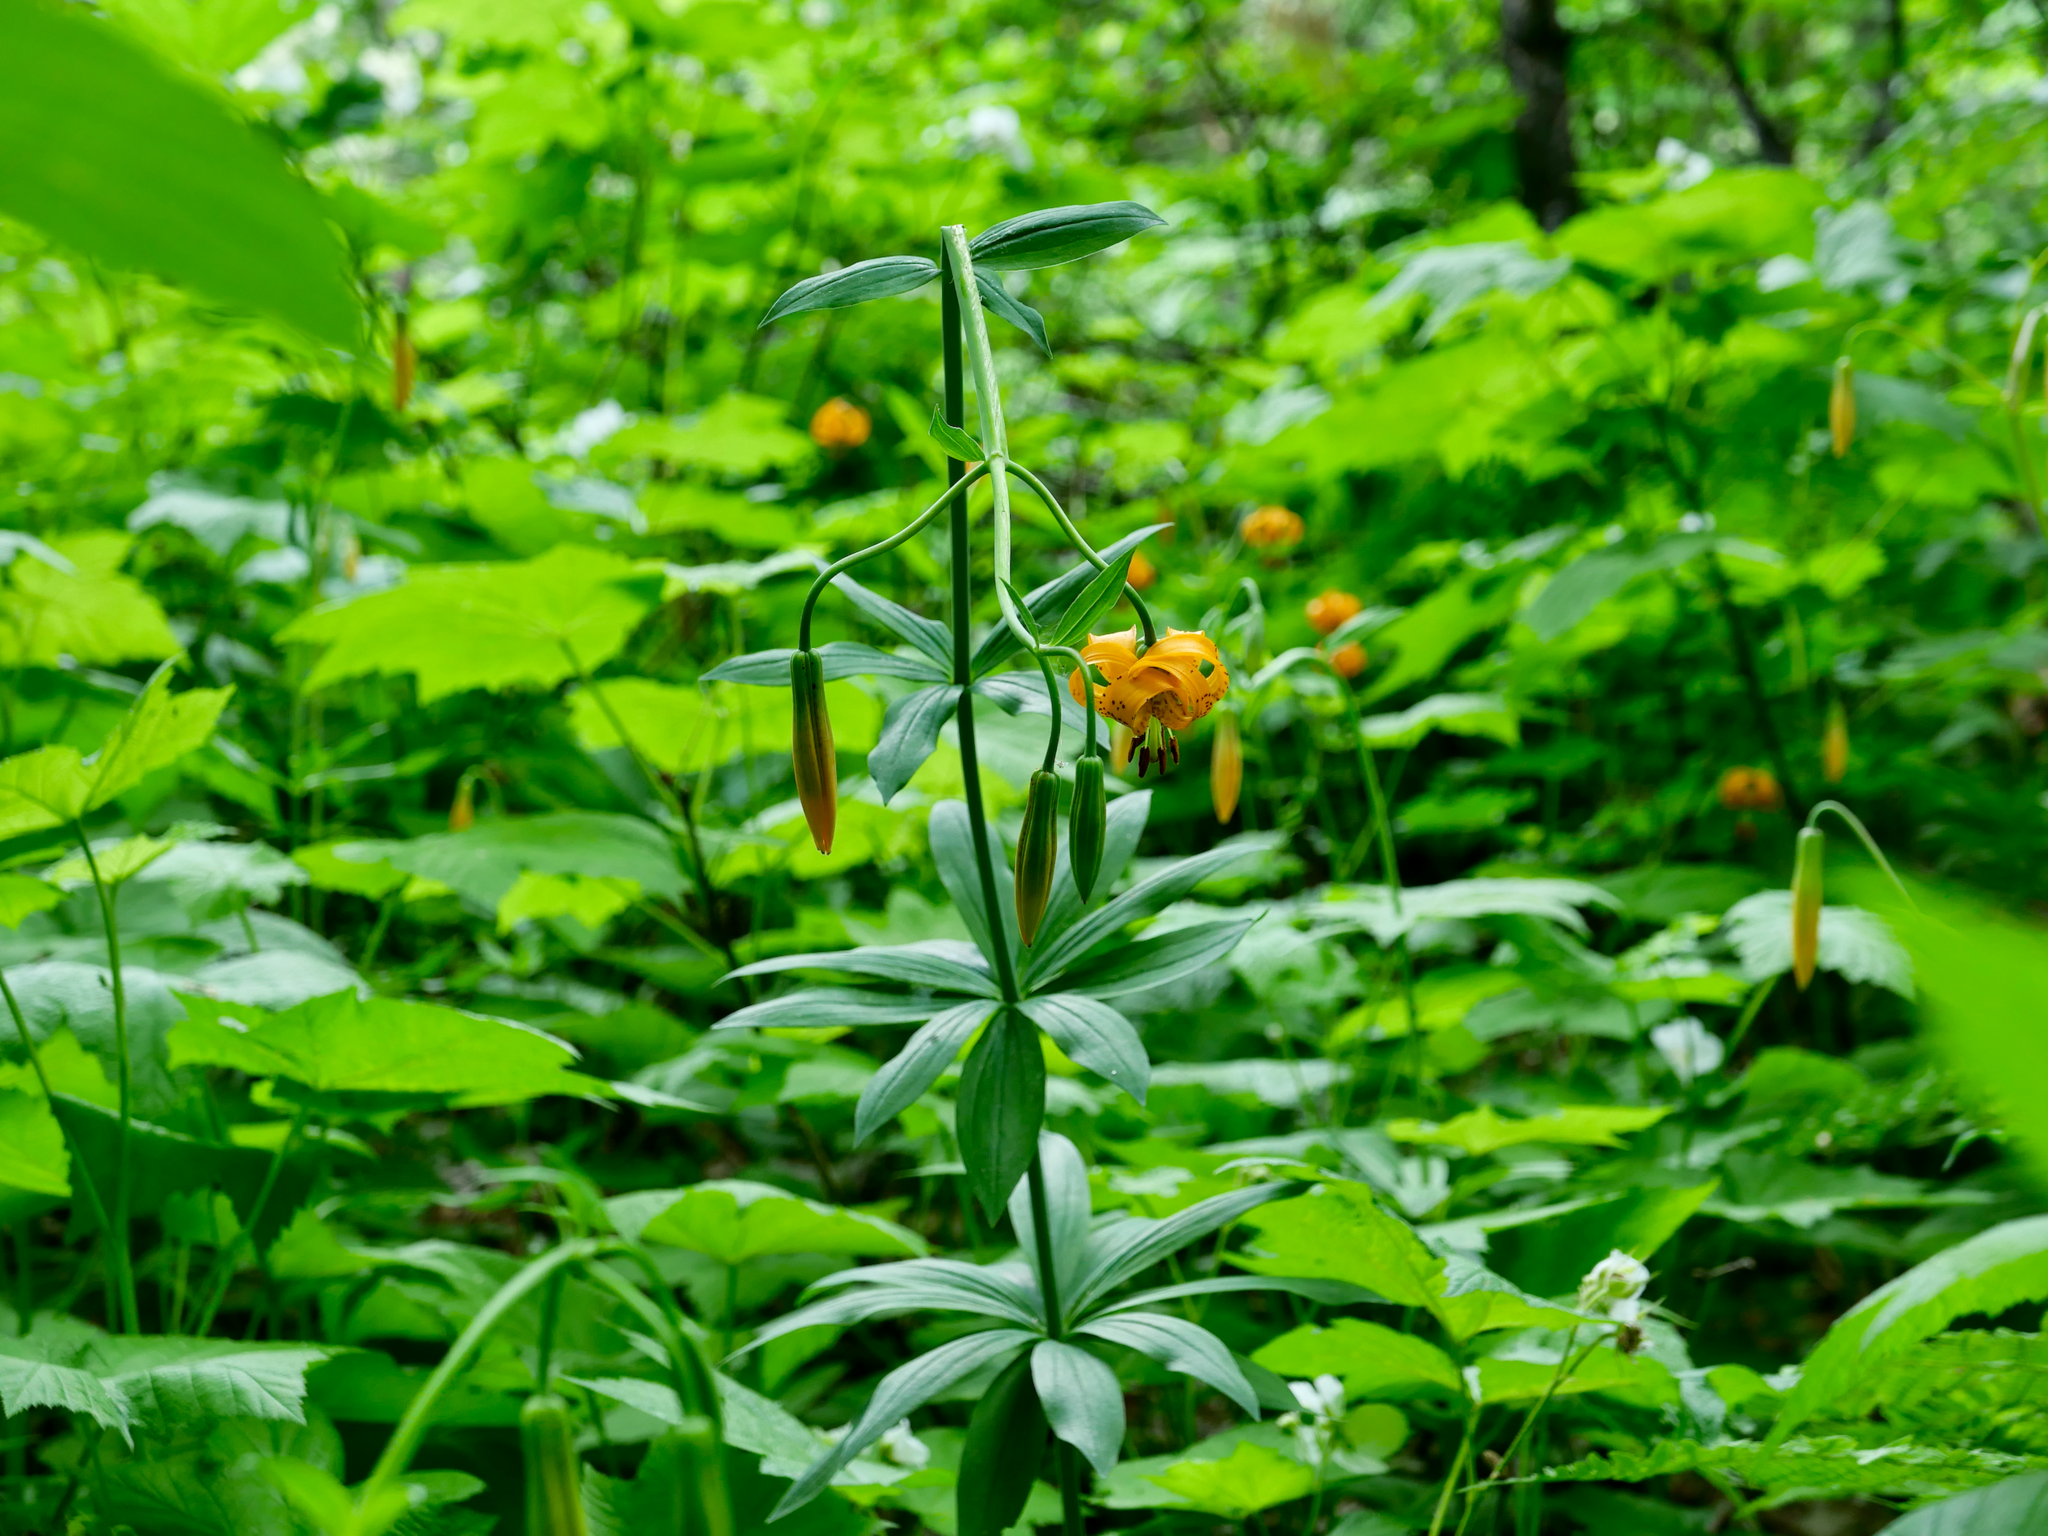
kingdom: Plantae
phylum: Tracheophyta
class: Liliopsida
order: Liliales
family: Liliaceae
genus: Lilium
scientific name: Lilium columbianum
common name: Columbia lily
